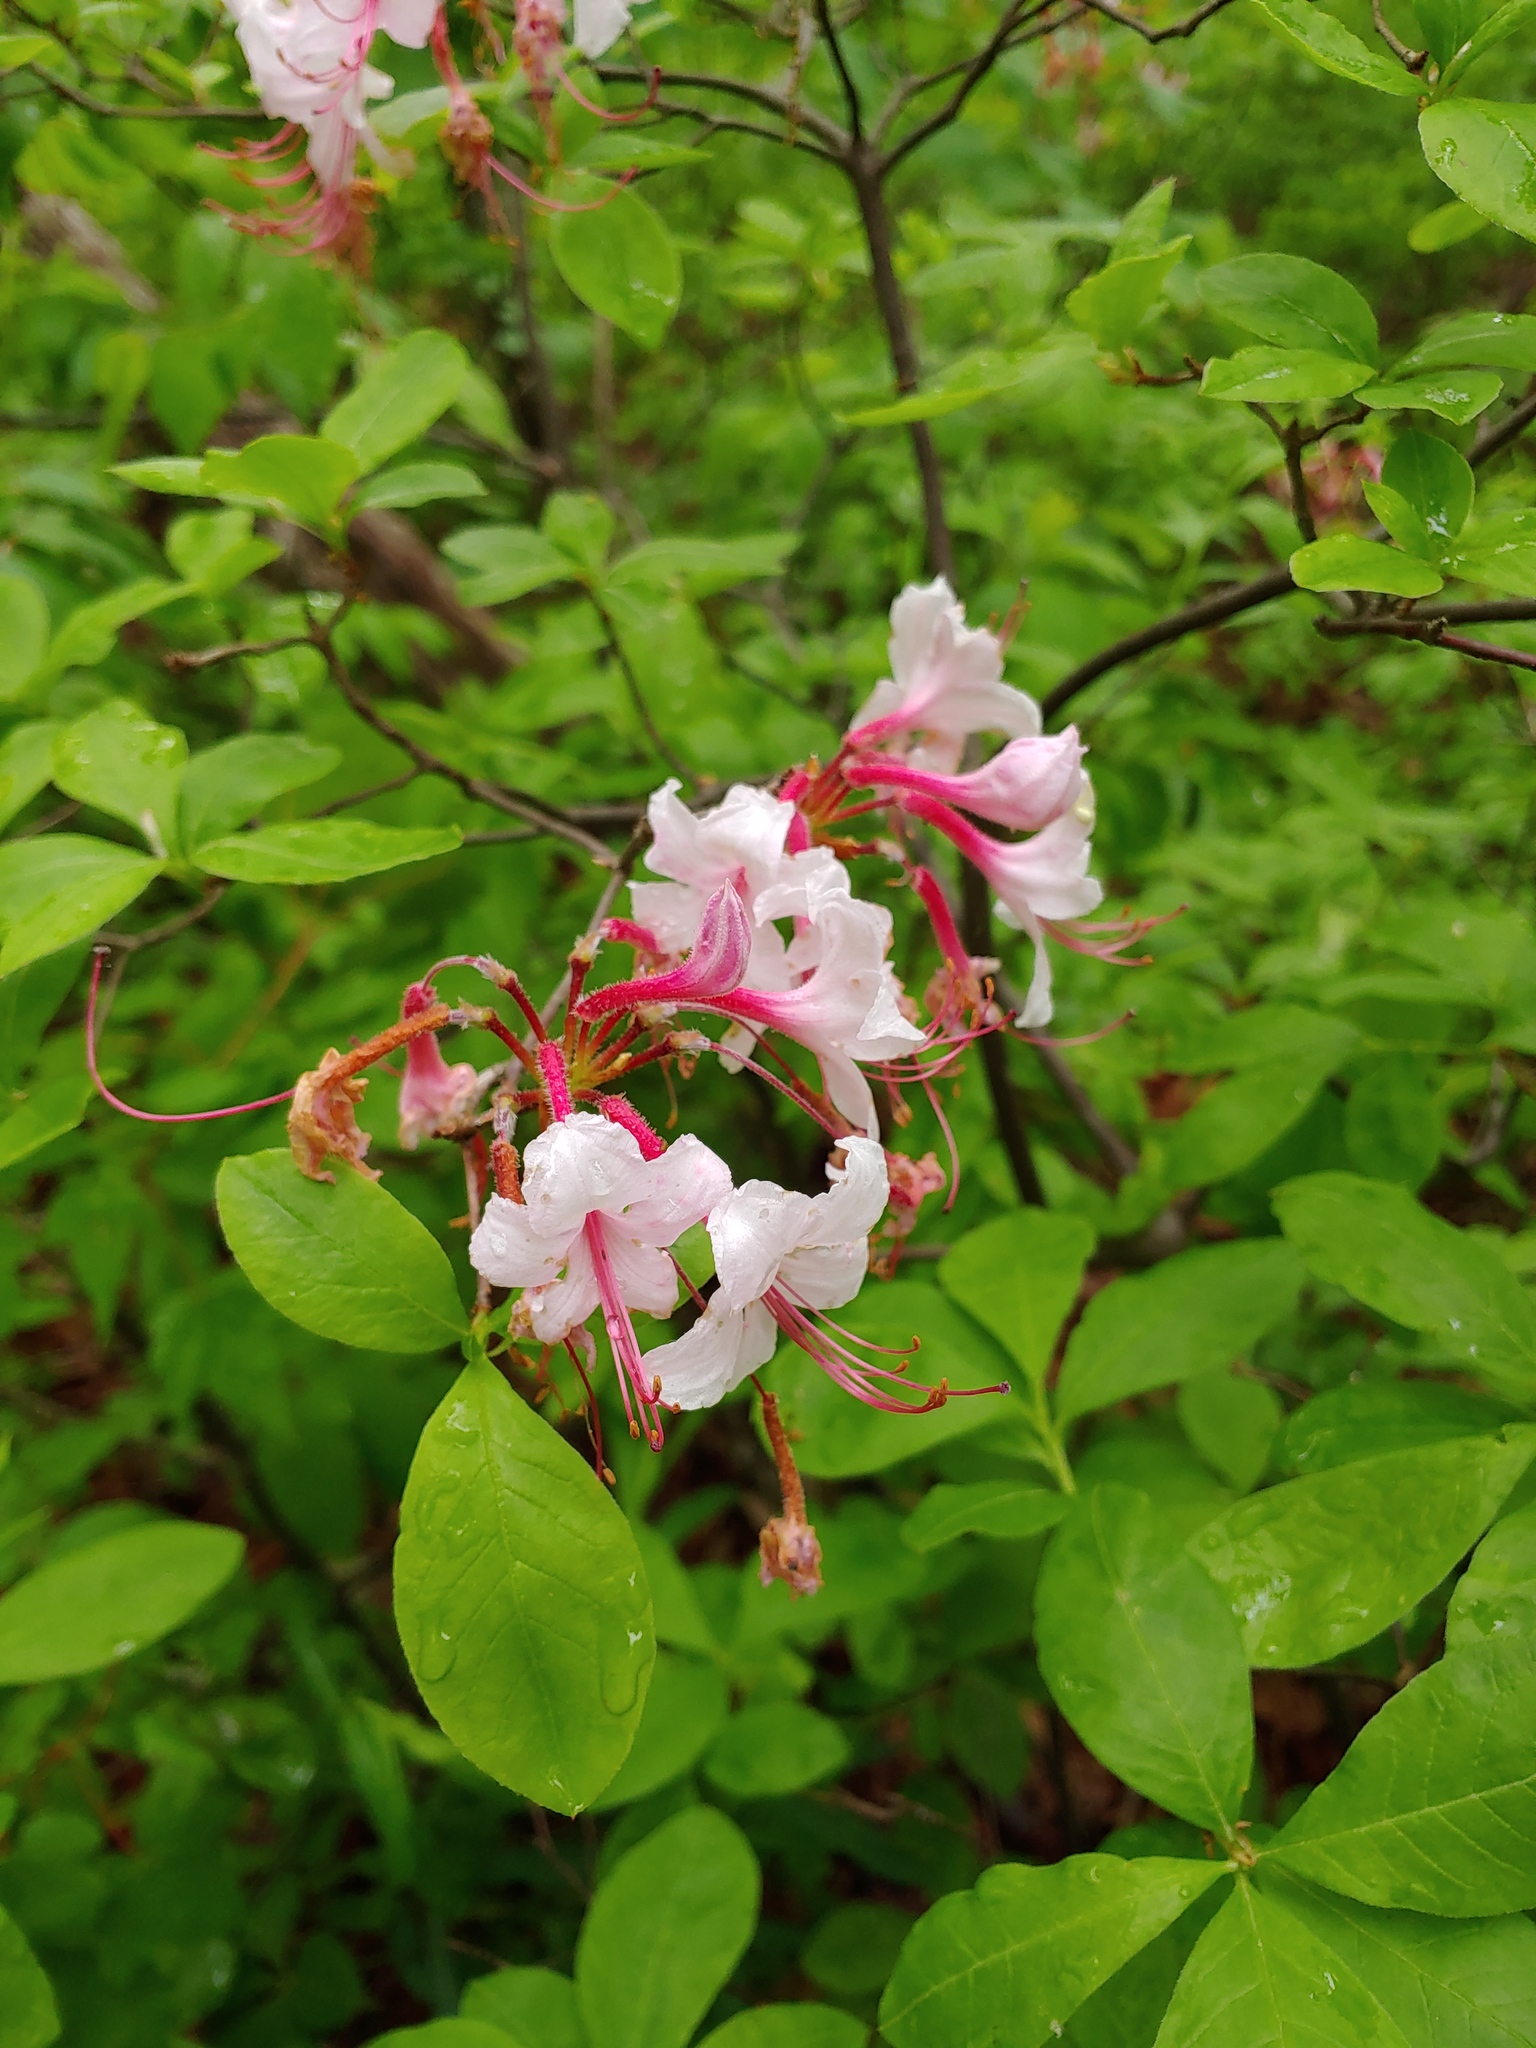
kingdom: Plantae
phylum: Tracheophyta
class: Magnoliopsida
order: Ericales
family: Ericaceae
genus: Rhododendron
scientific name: Rhododendron periclymenoides
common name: Election-pink
